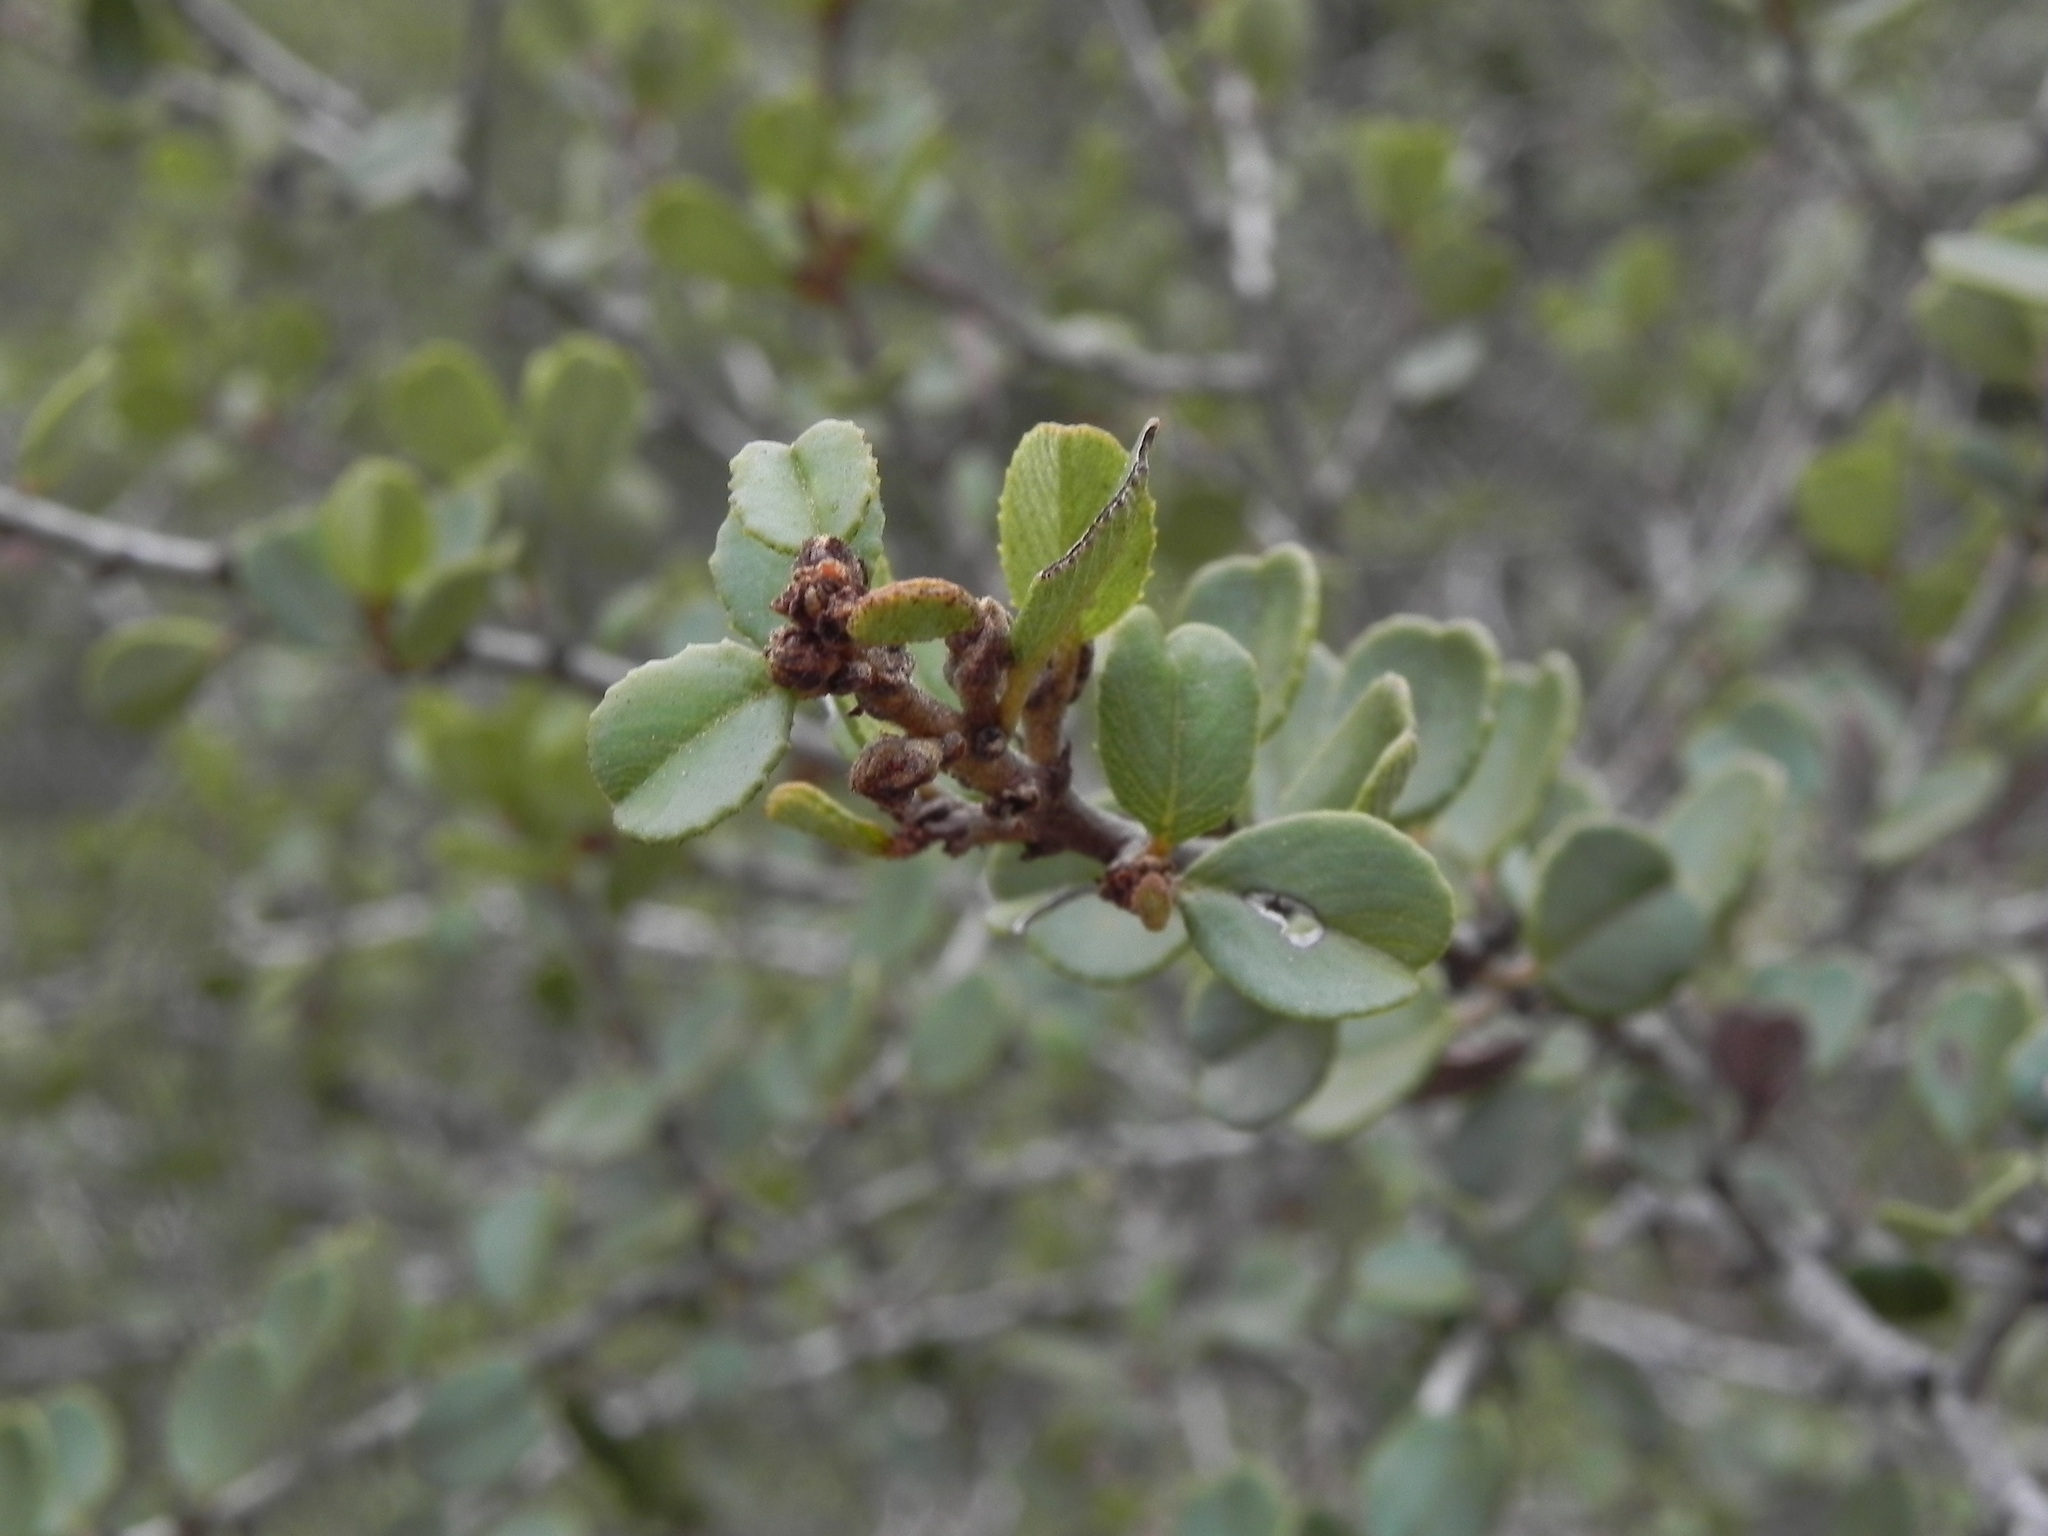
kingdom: Plantae
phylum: Tracheophyta
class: Magnoliopsida
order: Rosales
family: Rhamnaceae
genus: Ceanothus
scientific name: Ceanothus verrucosus
